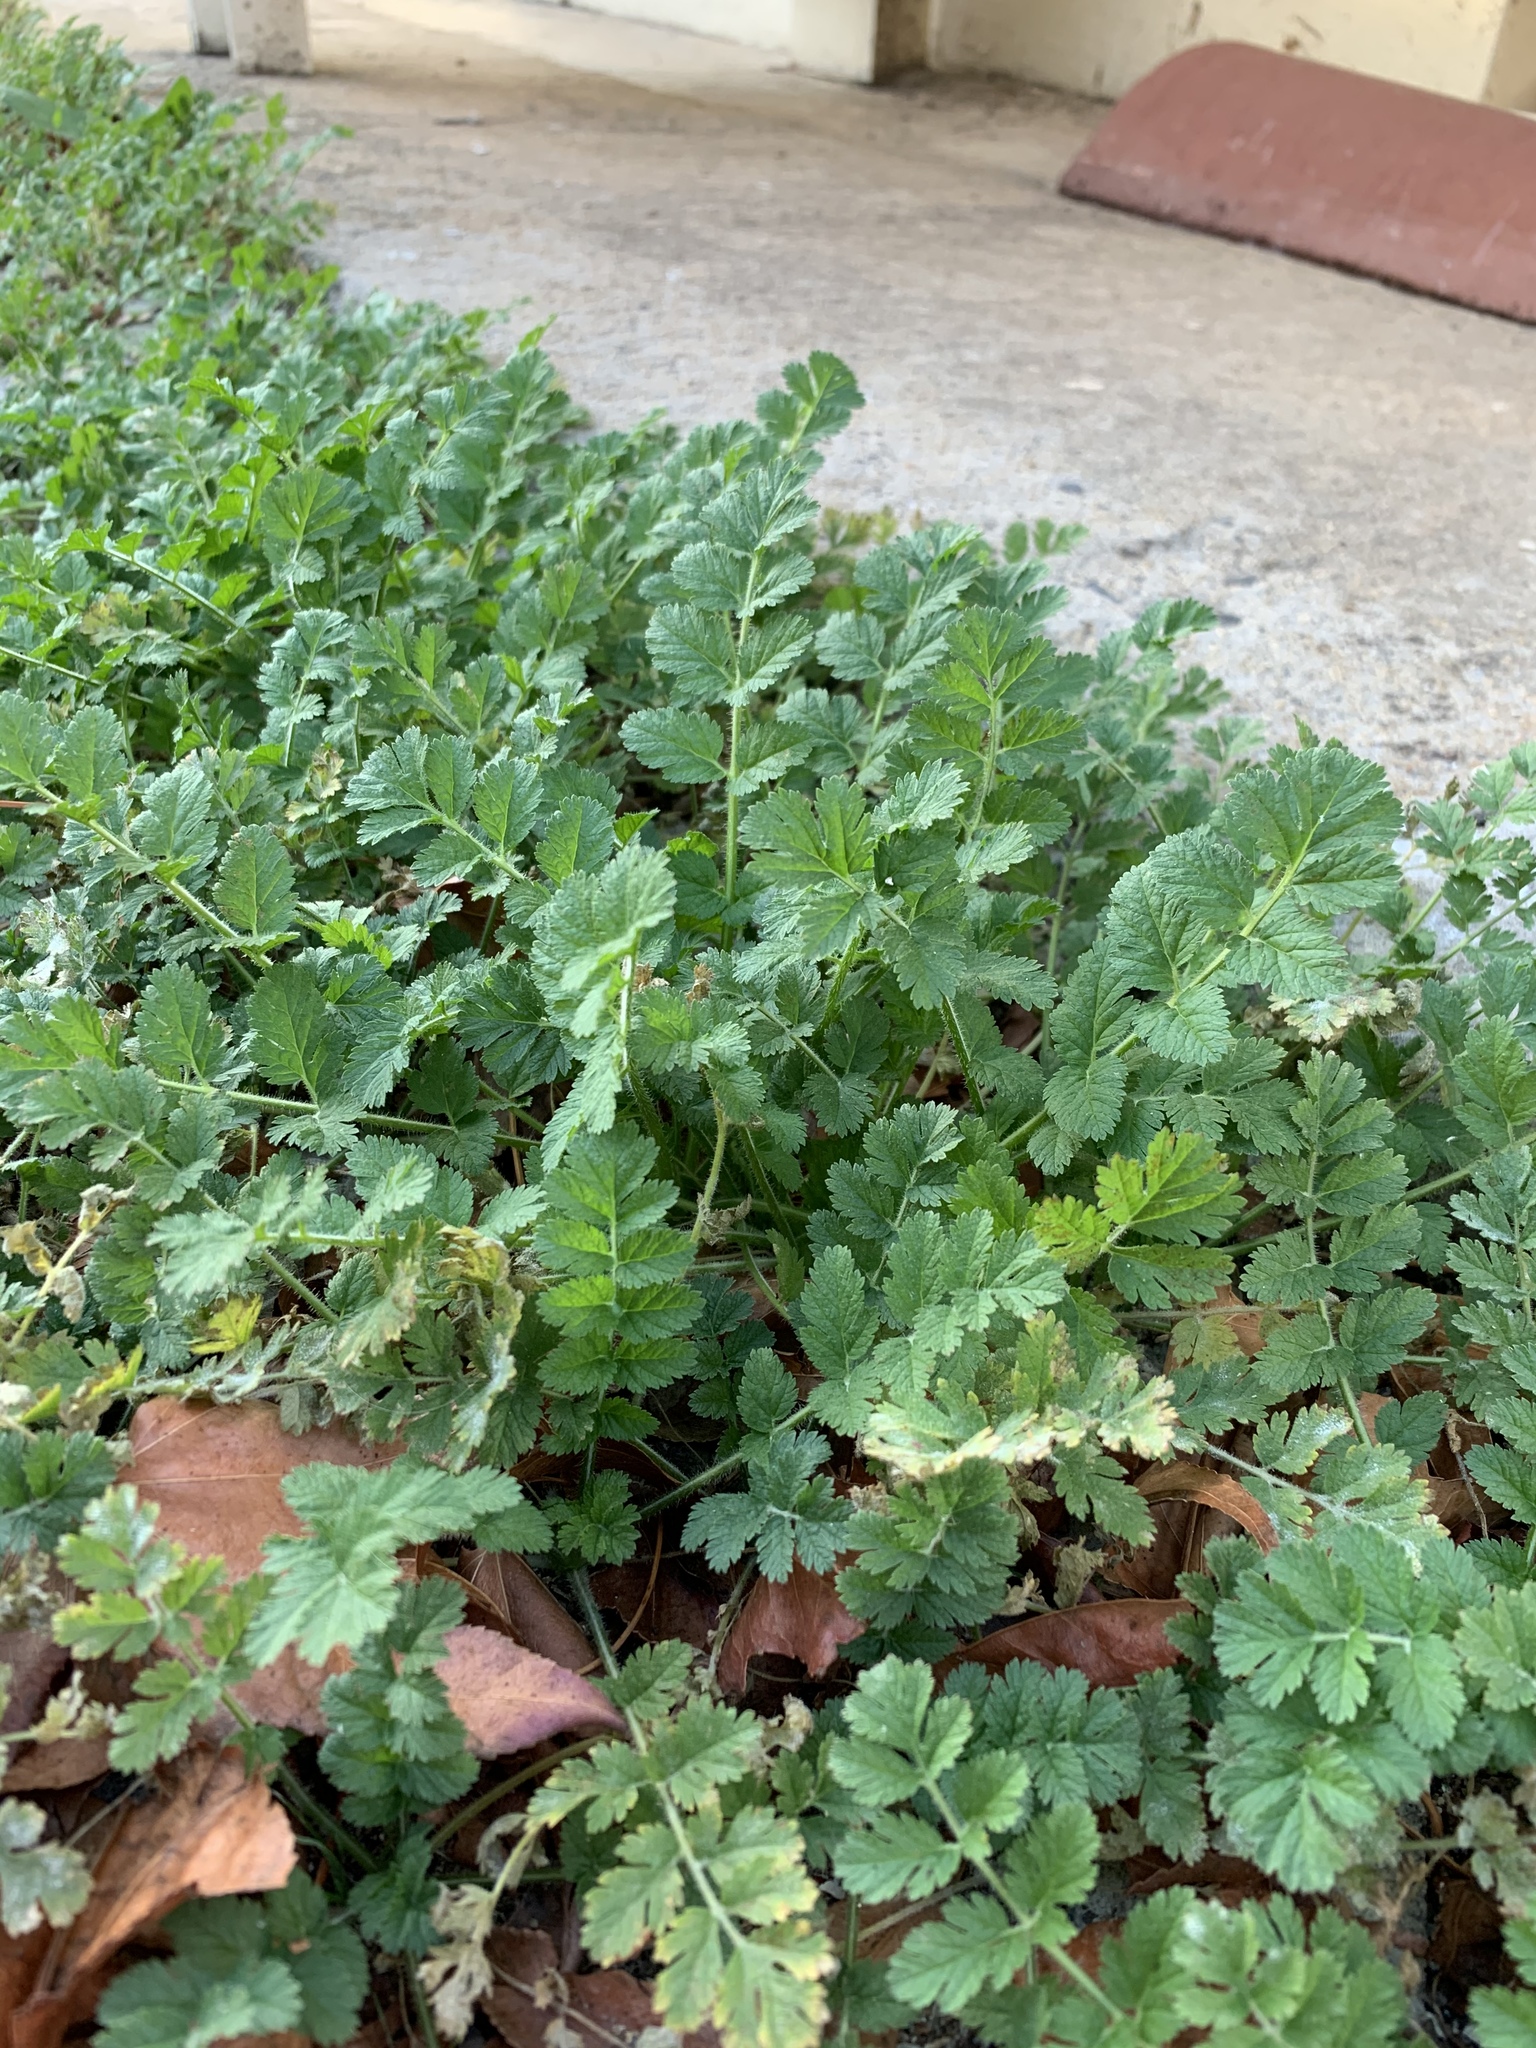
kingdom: Plantae
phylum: Tracheophyta
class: Magnoliopsida
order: Geraniales
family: Geraniaceae
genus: Erodium
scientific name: Erodium moschatum
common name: Musk stork's-bill
